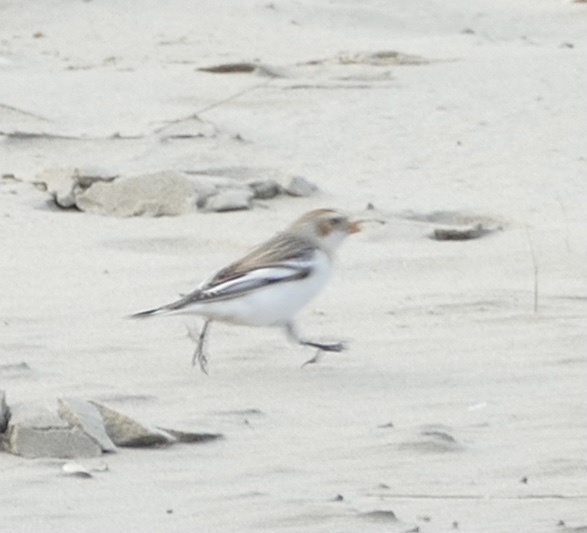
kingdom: Animalia
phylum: Chordata
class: Aves
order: Passeriformes
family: Calcariidae
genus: Plectrophenax
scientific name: Plectrophenax nivalis
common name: Snow bunting
